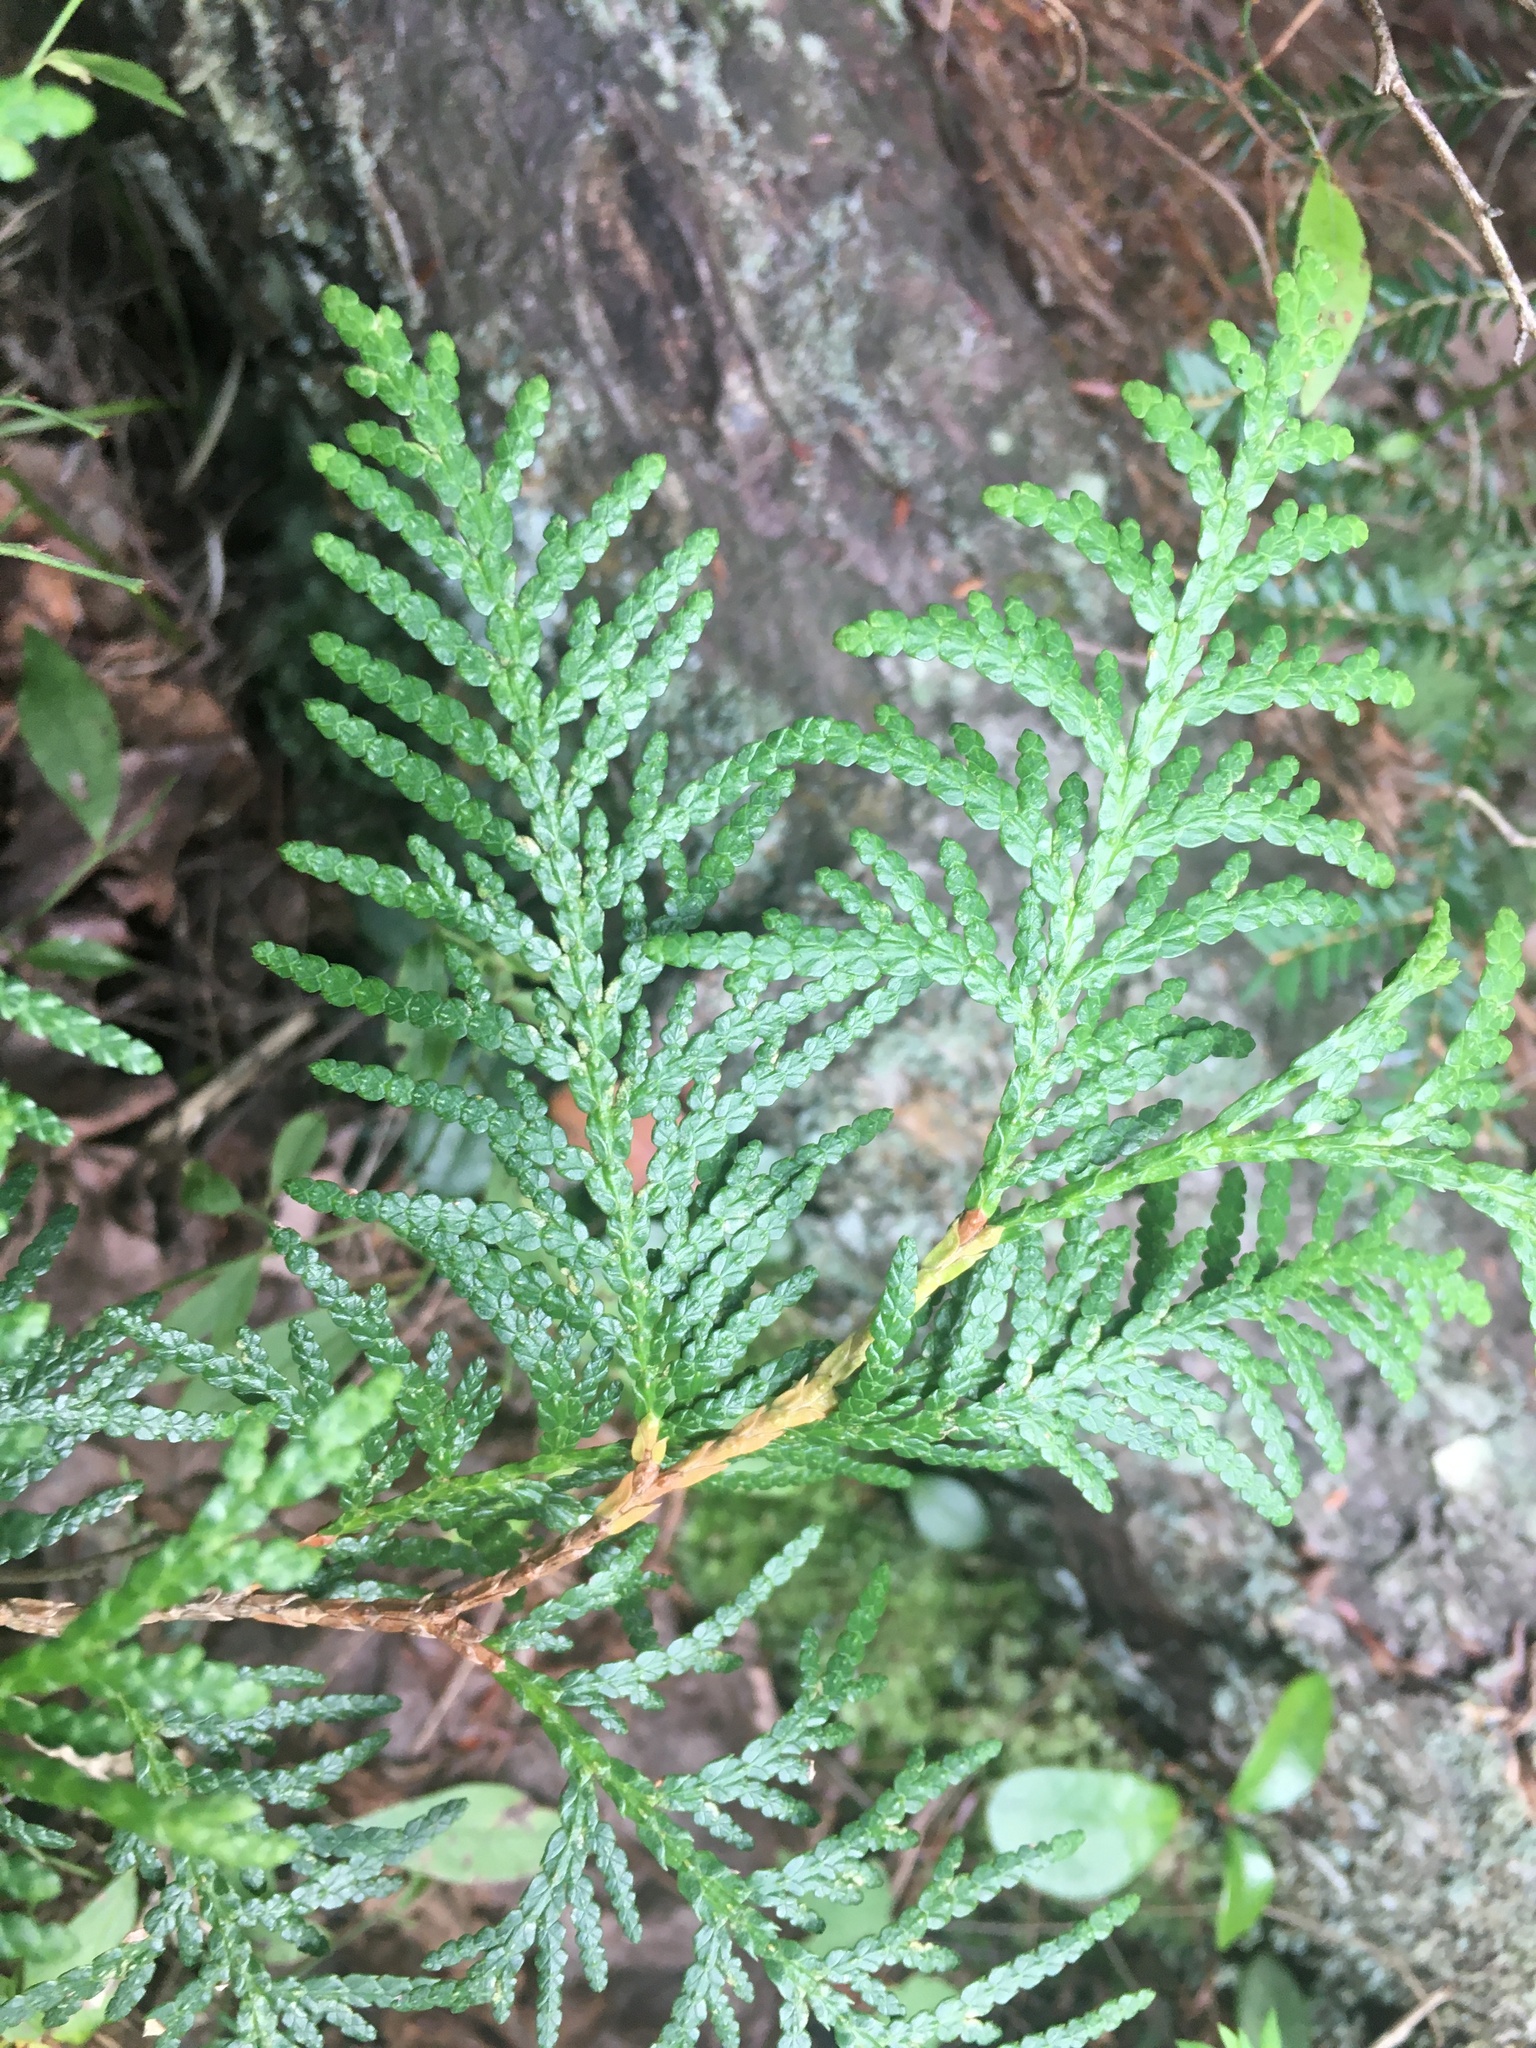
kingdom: Plantae
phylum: Tracheophyta
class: Pinopsida
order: Pinales
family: Cupressaceae
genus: Thuja
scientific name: Thuja occidentalis
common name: Northern white-cedar
